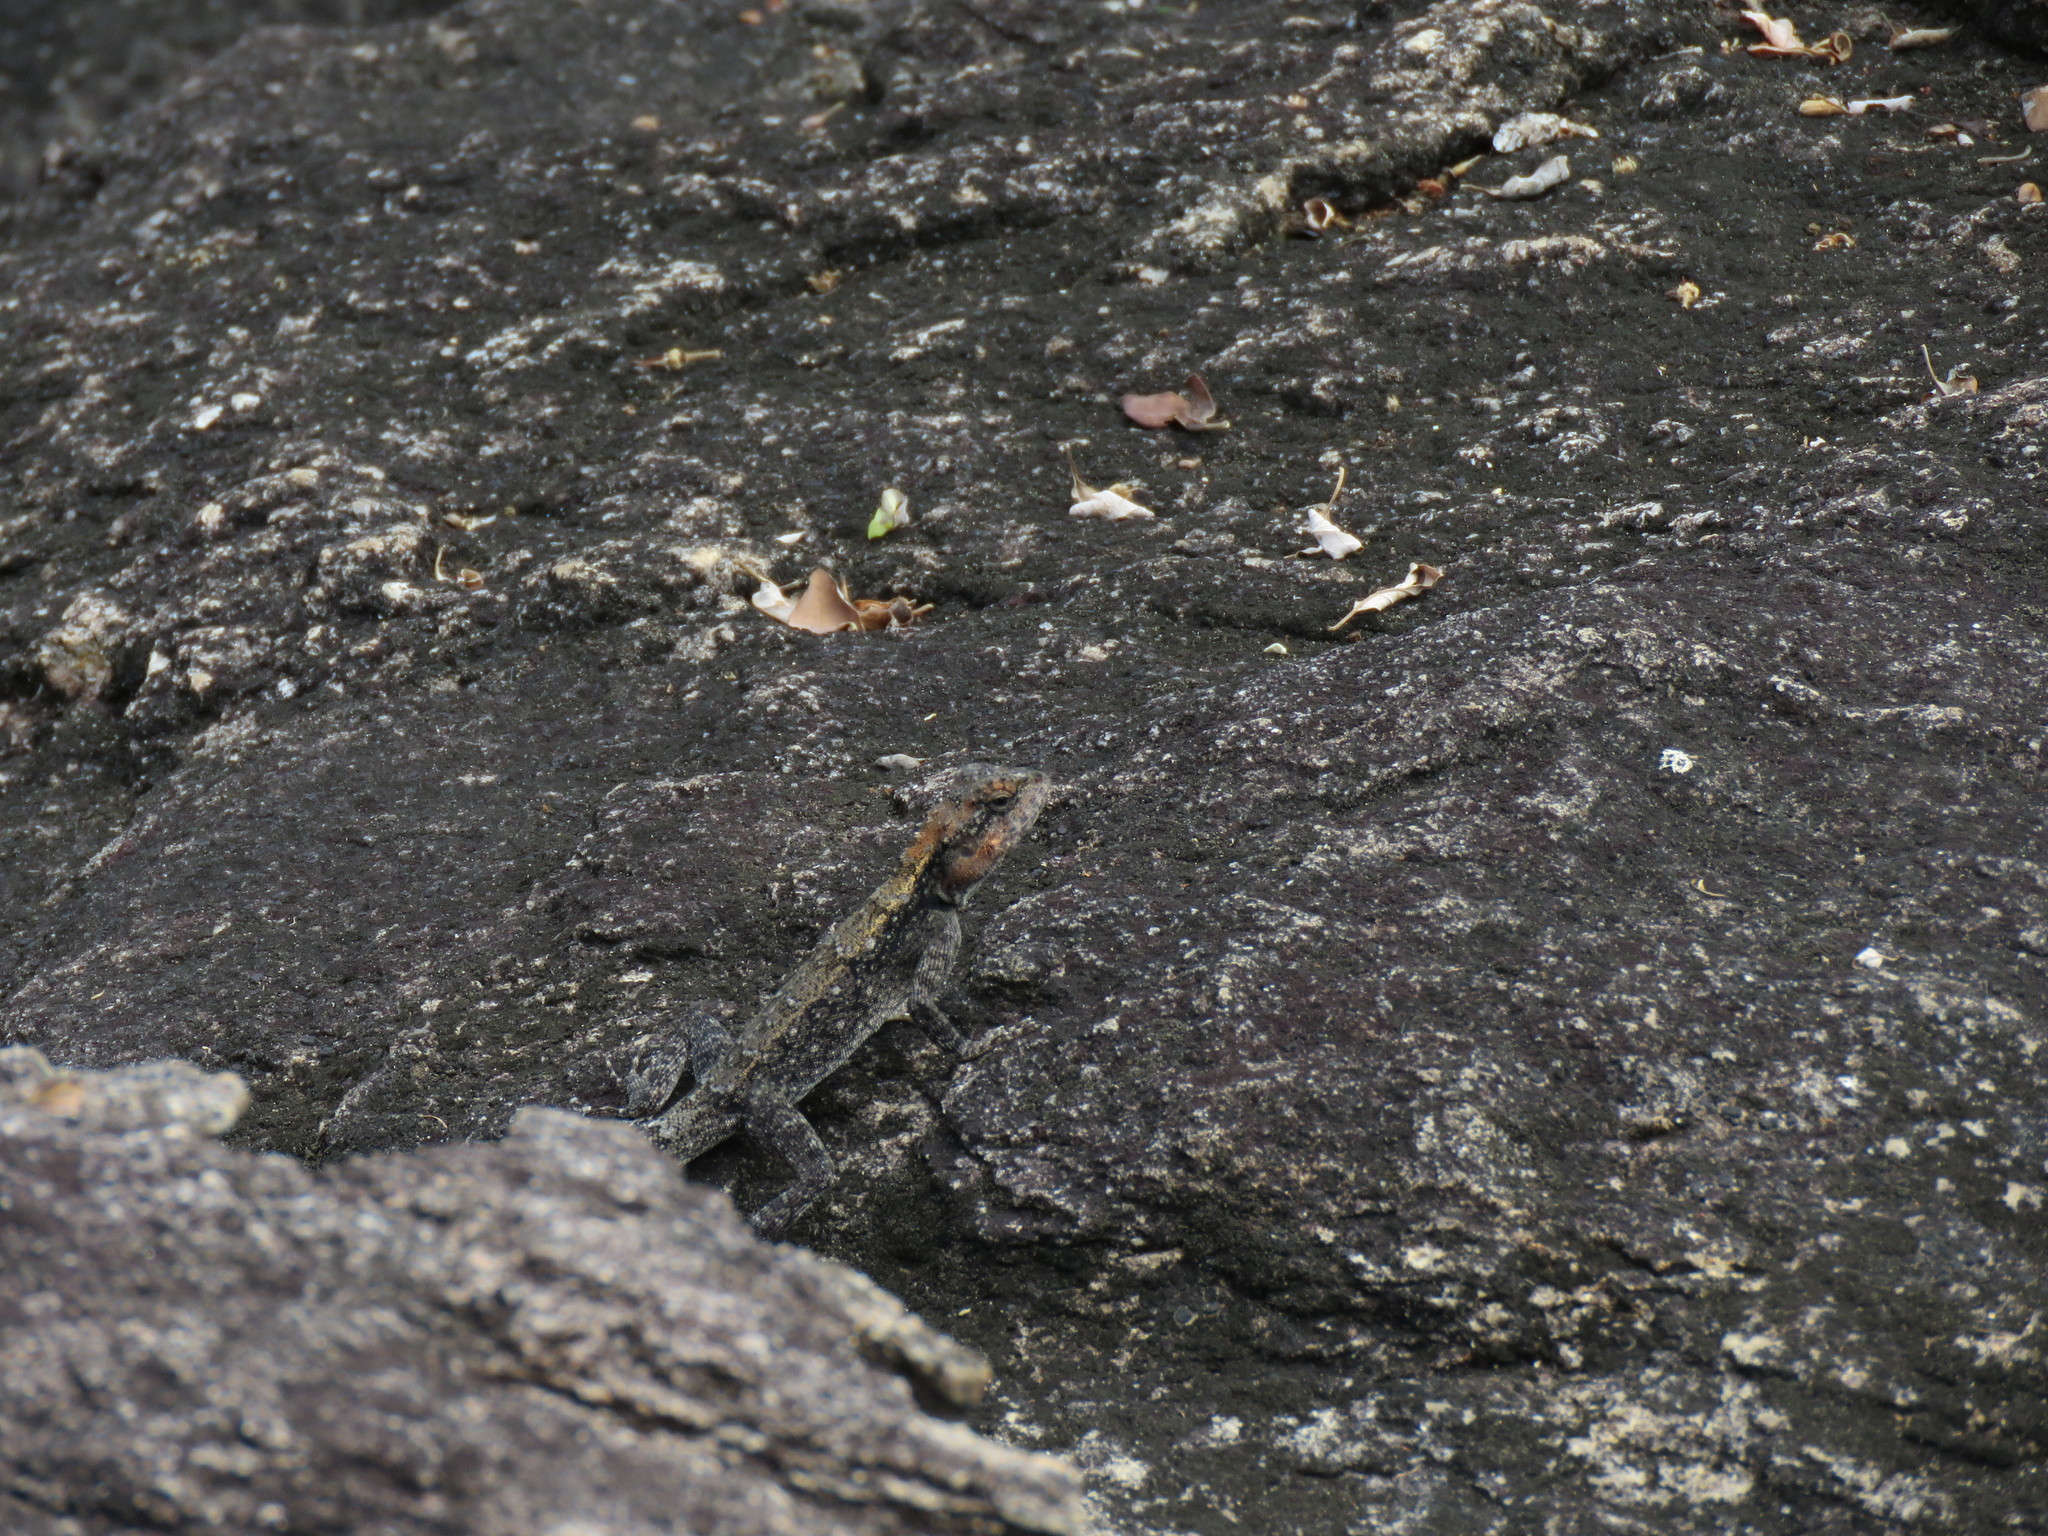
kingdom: Animalia
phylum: Chordata
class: Squamata
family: Agamidae
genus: Psammophilus
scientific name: Psammophilus dorsalis
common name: South indian rock agama
